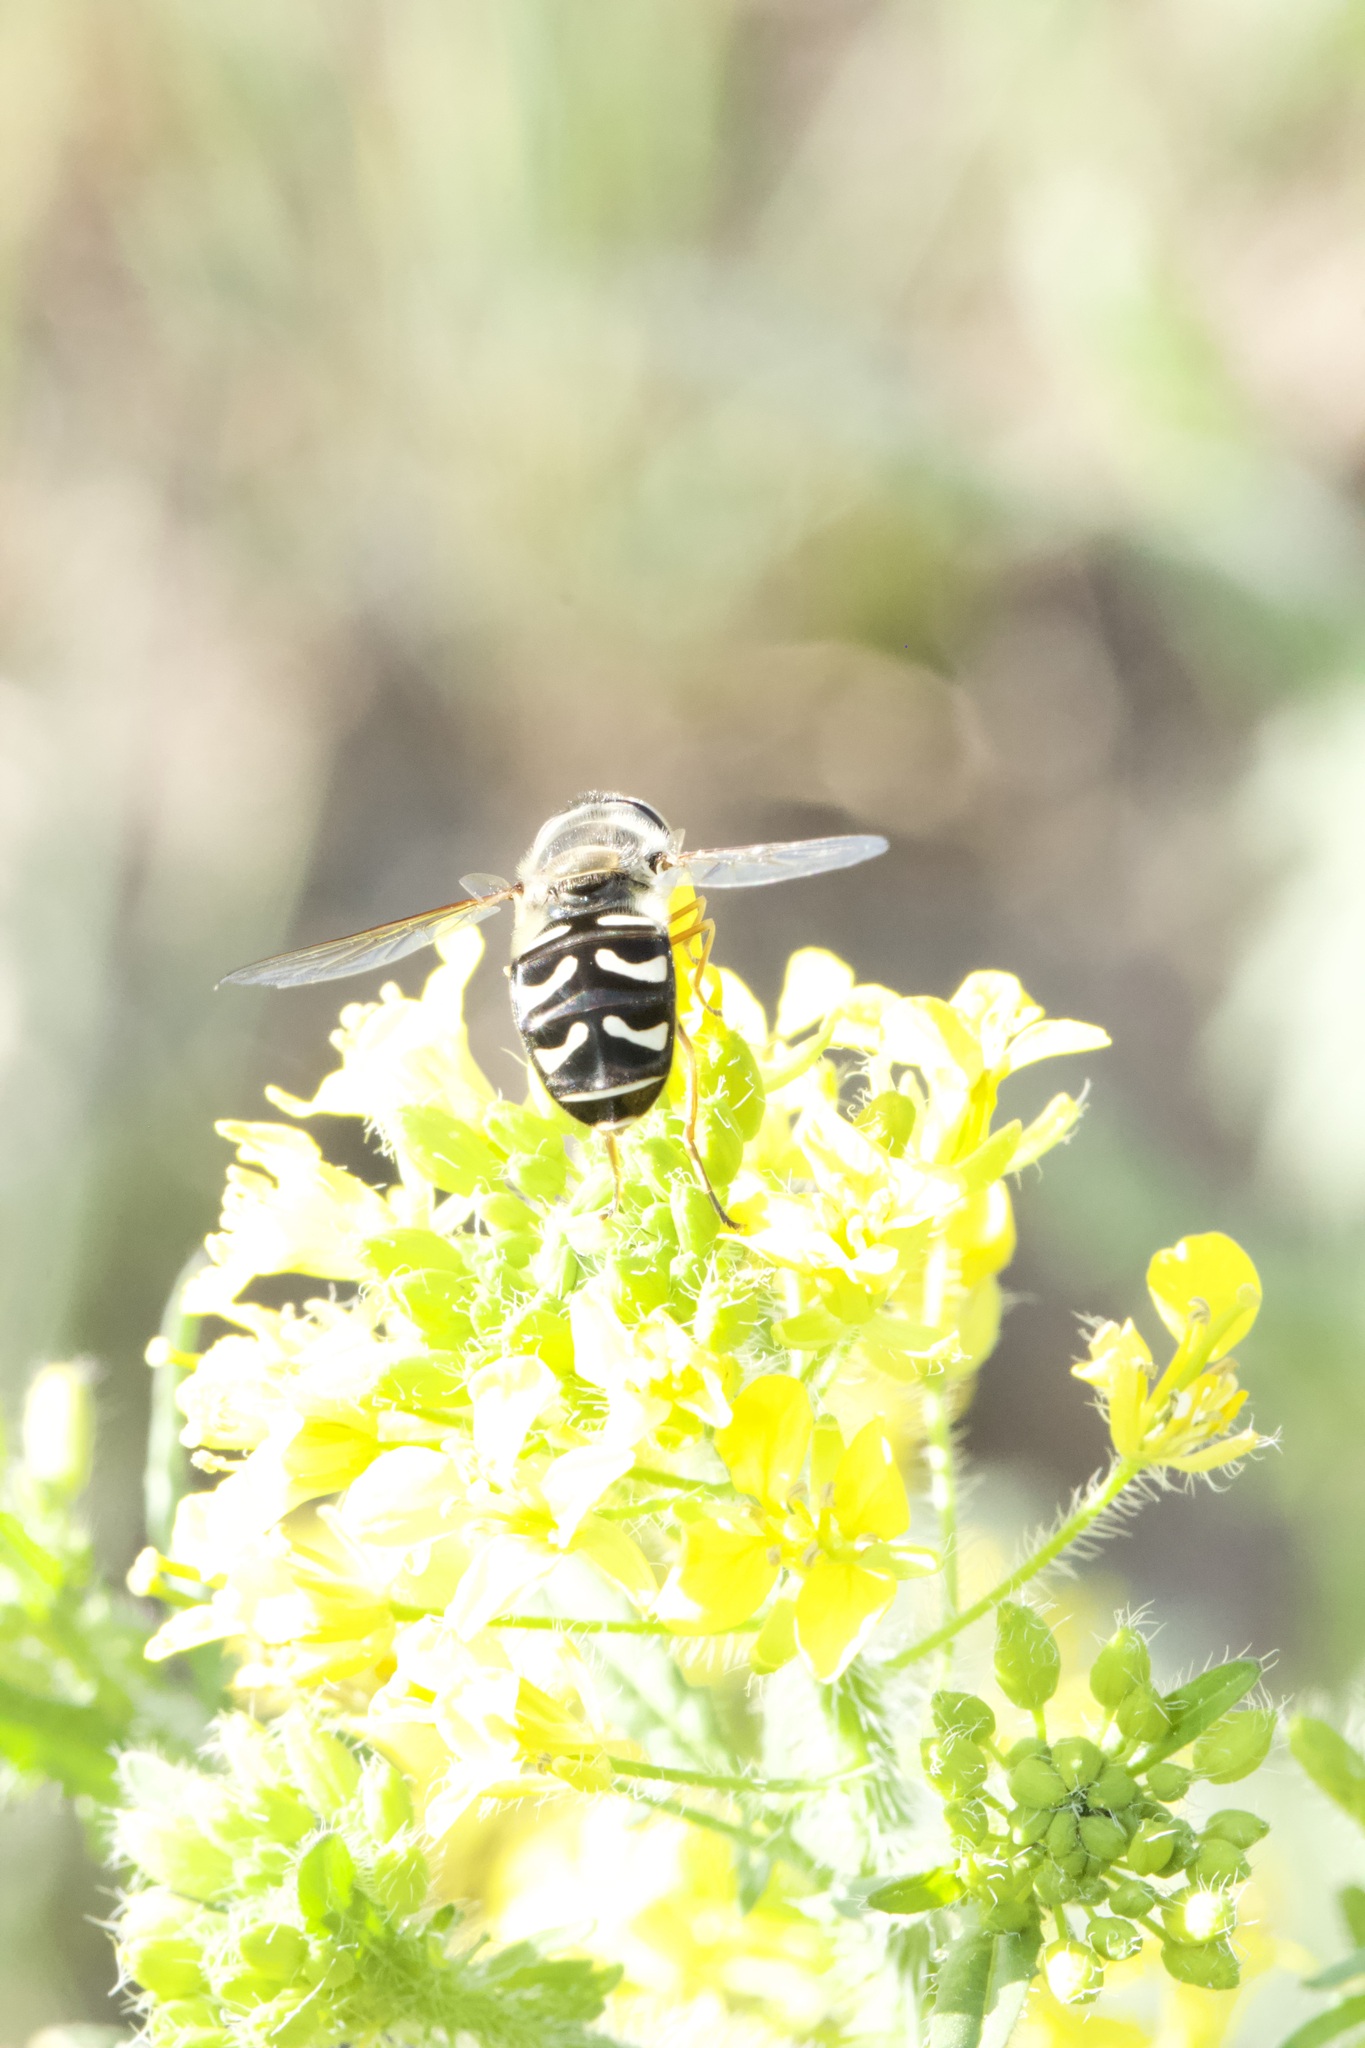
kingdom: Animalia
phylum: Arthropoda
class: Insecta
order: Diptera
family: Syrphidae
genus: Scaeva
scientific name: Scaeva affinis
